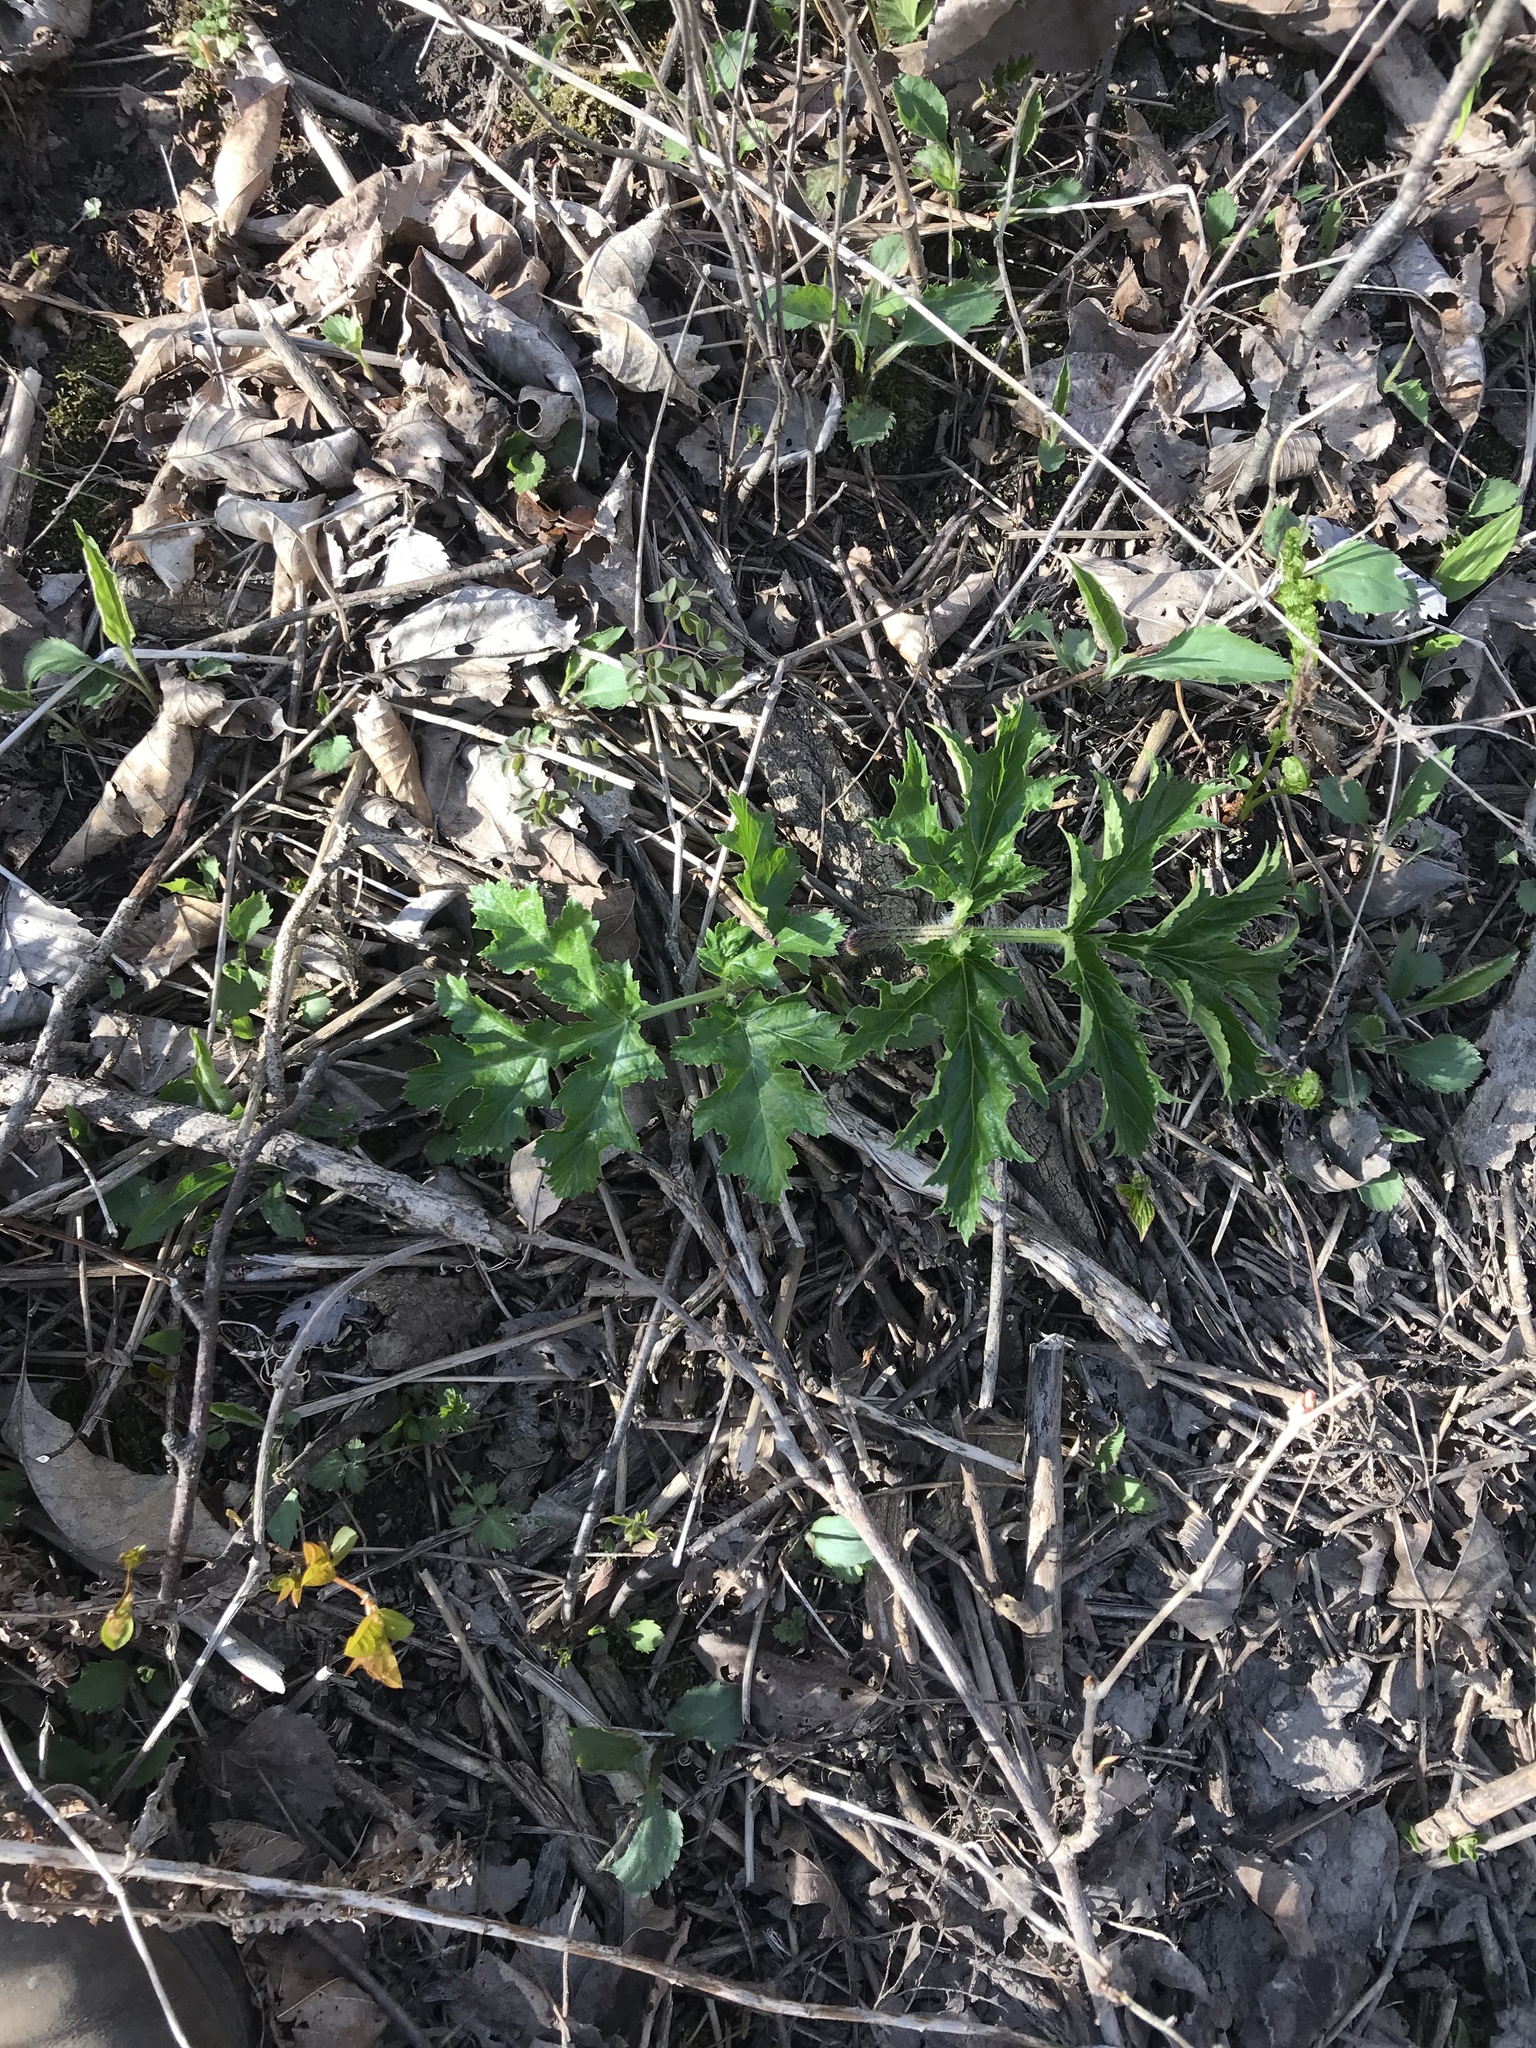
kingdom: Plantae
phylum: Tracheophyta
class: Magnoliopsida
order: Apiales
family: Apiaceae
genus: Heracleum
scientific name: Heracleum mantegazzianum
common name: Giant hogweed
